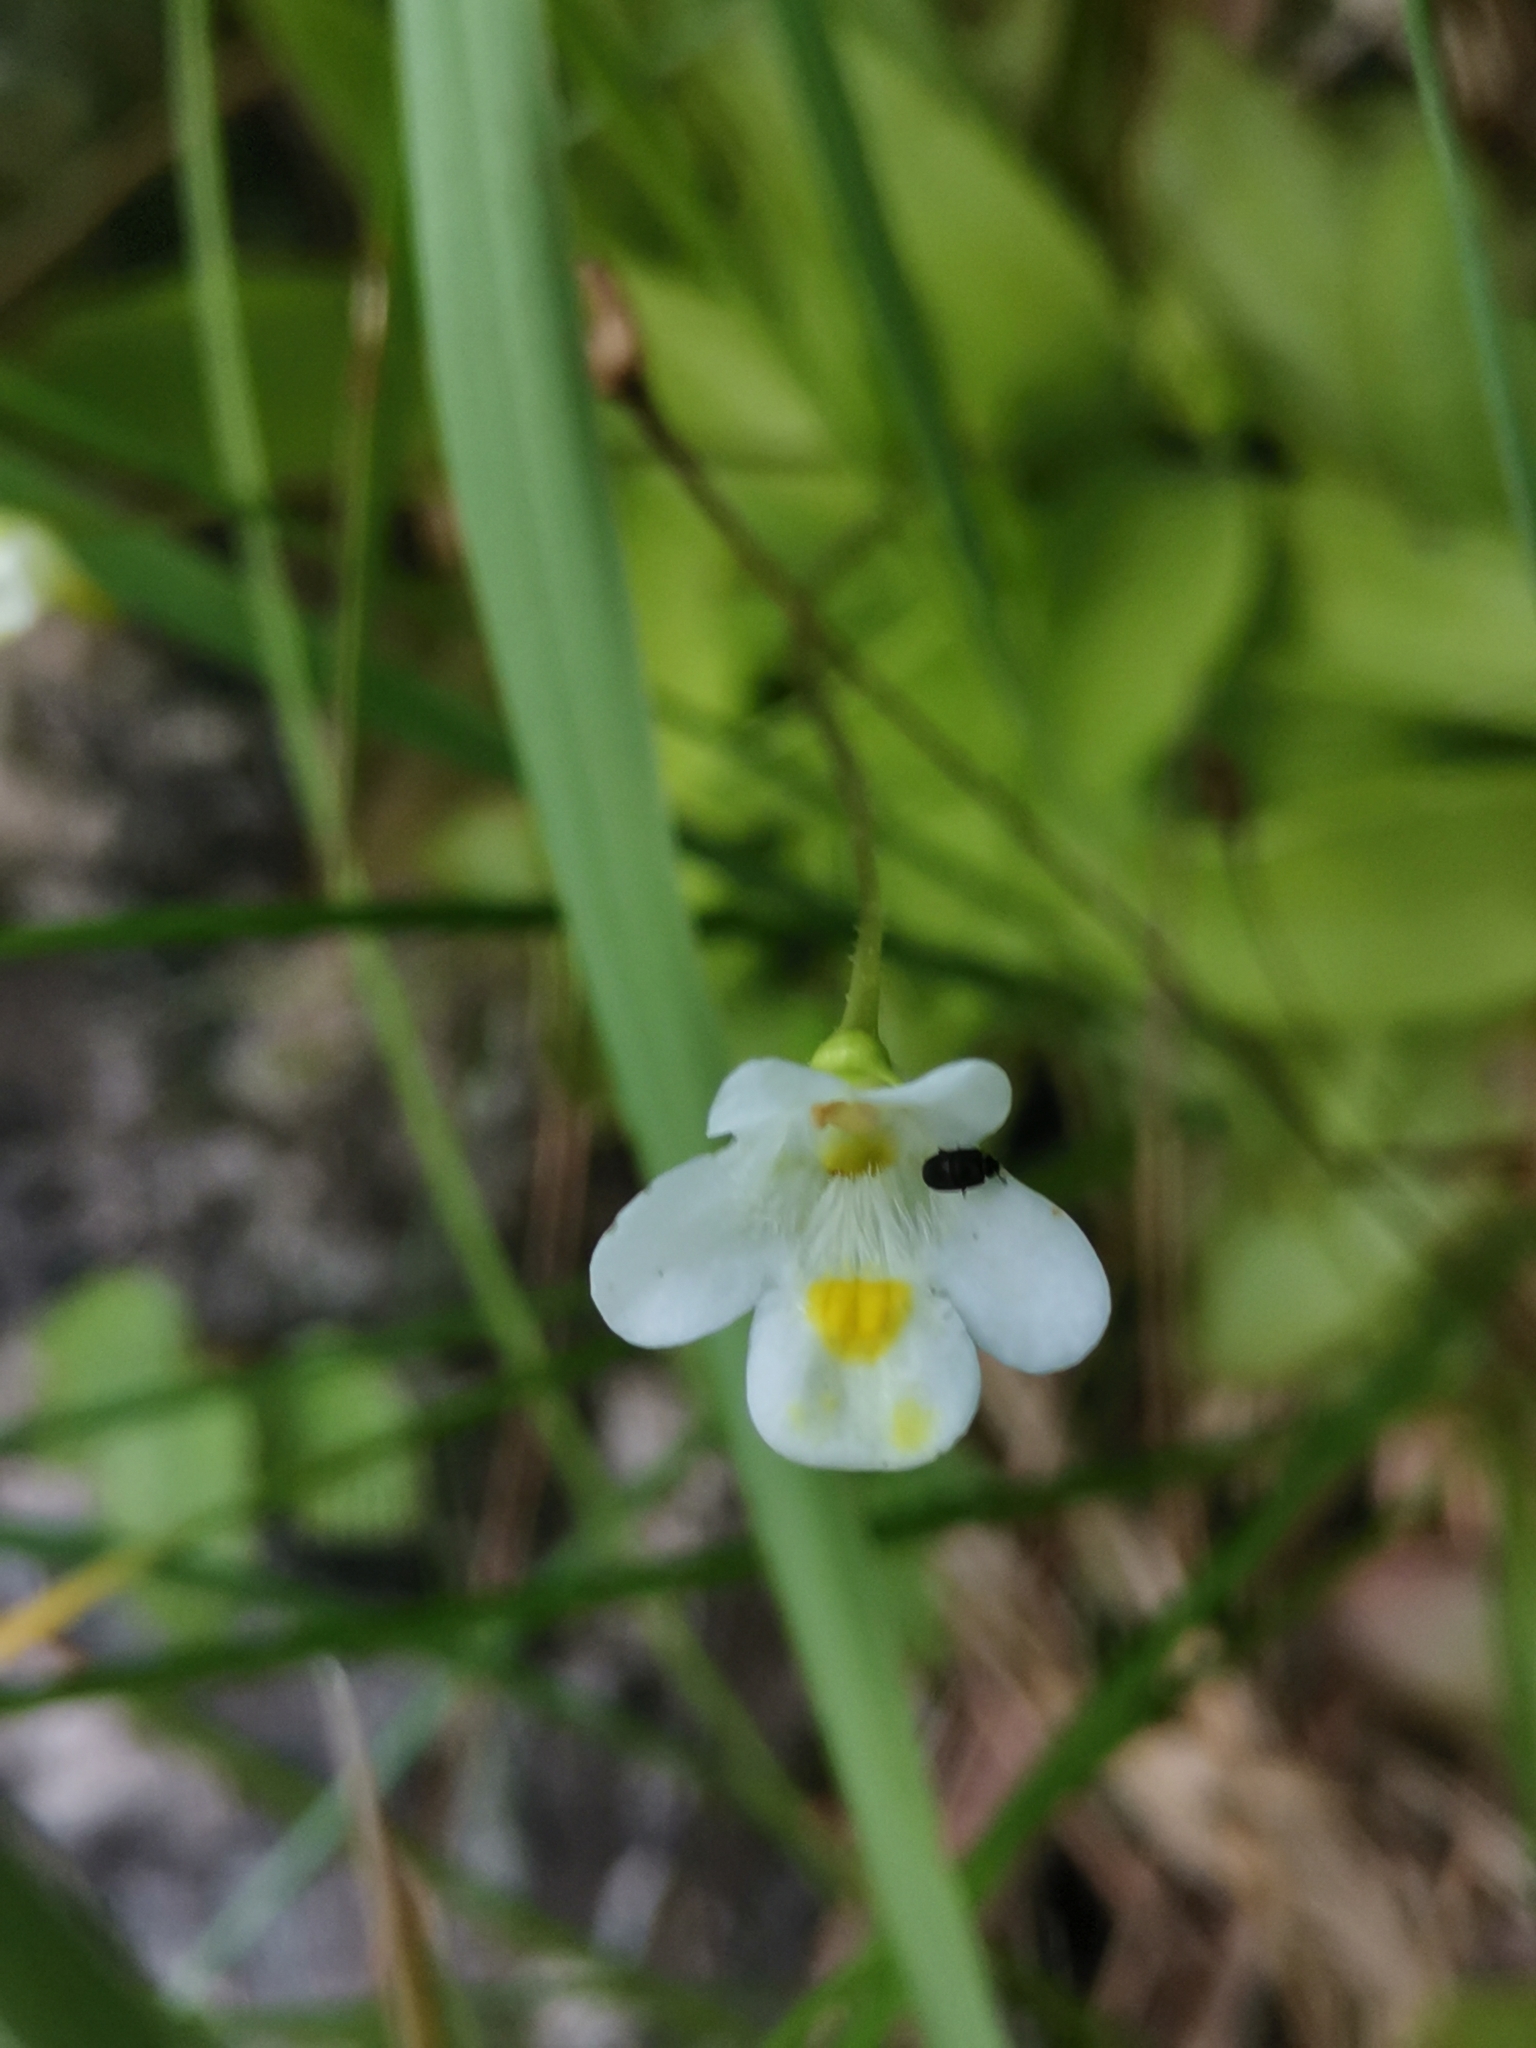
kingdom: Plantae
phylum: Tracheophyta
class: Magnoliopsida
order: Lamiales
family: Lentibulariaceae
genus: Pinguicula
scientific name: Pinguicula alpina
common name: Alpine butterwort
